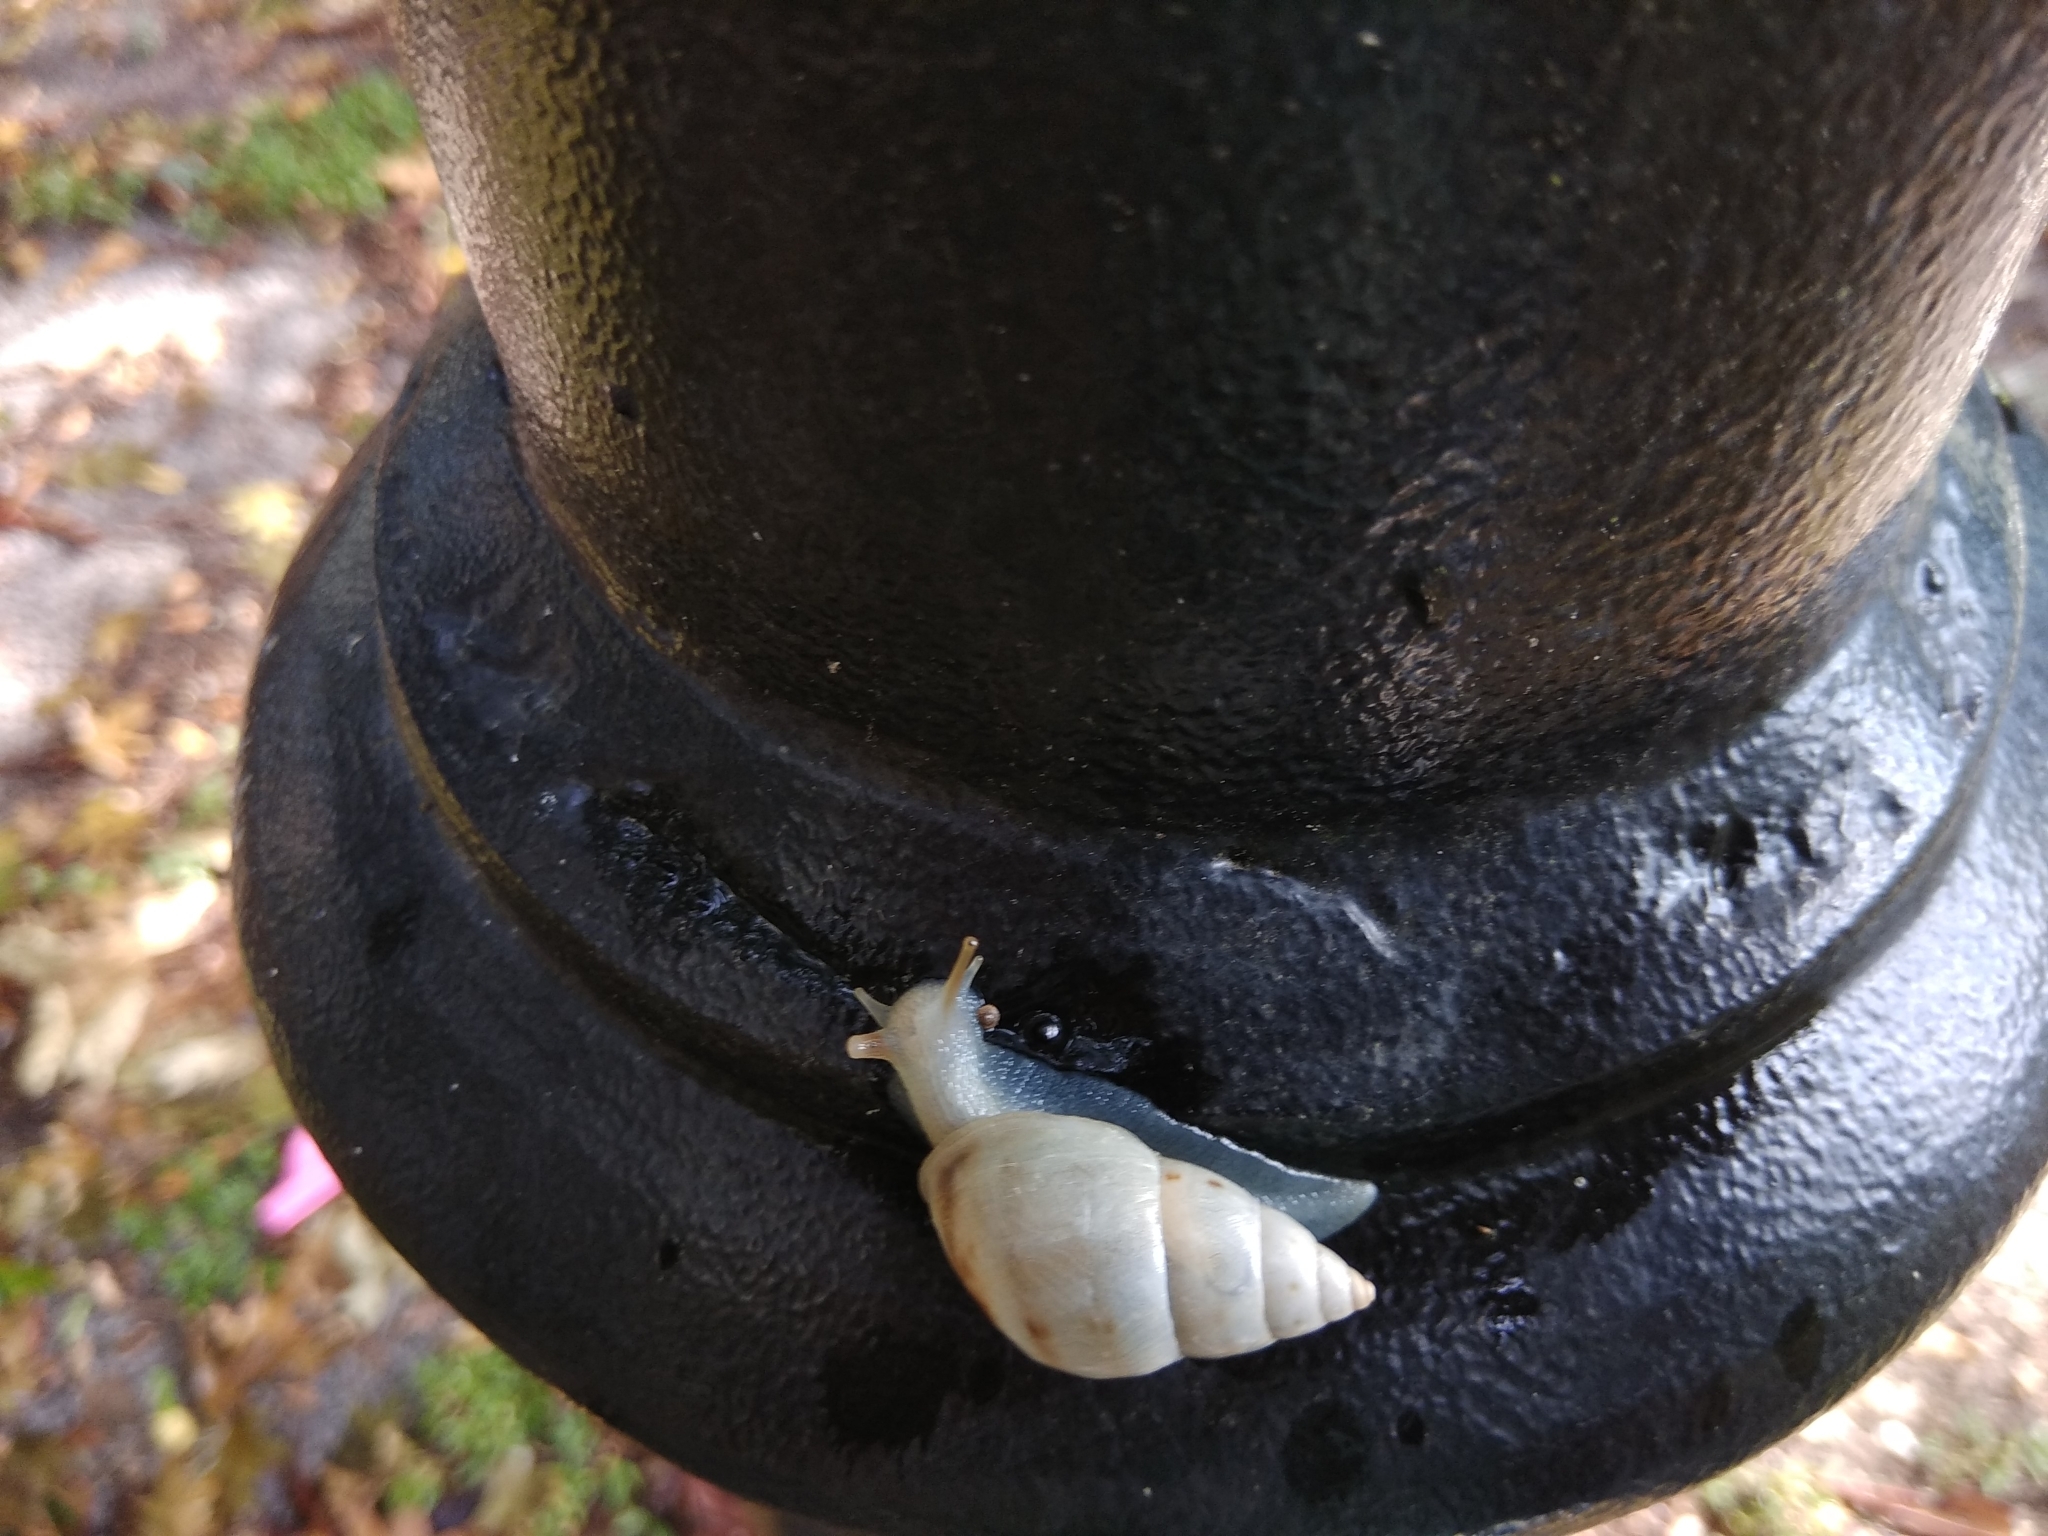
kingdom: Animalia
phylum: Mollusca
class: Gastropoda
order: Stylommatophora
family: Bulimulidae
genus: Drymaeus
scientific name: Drymaeus dormani
